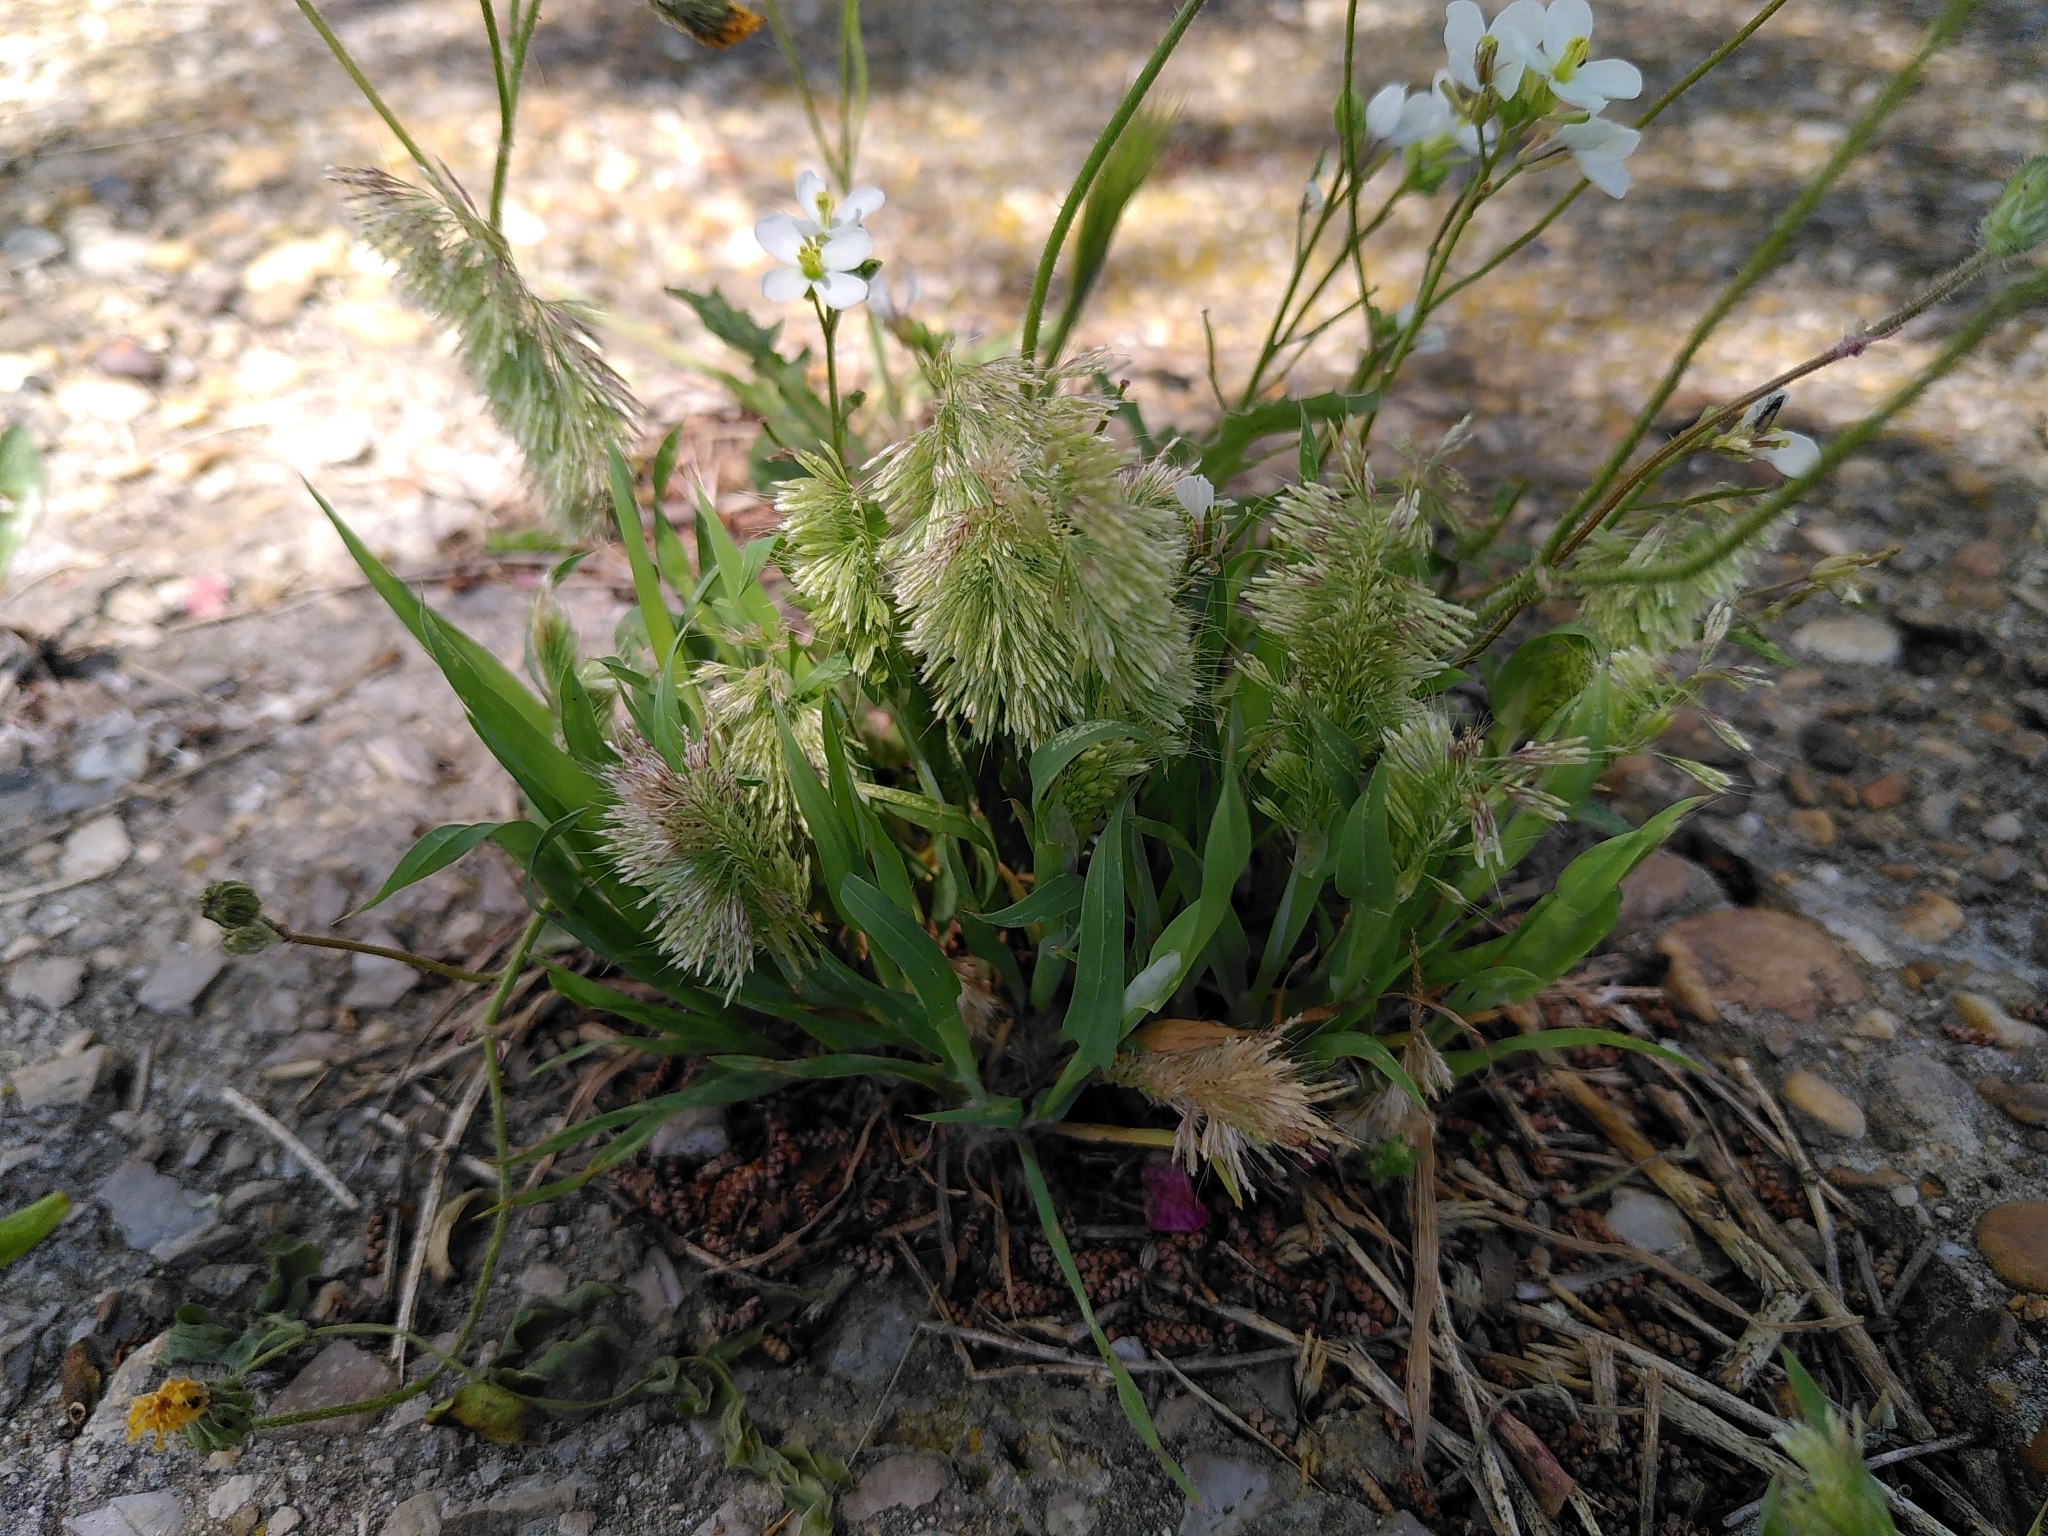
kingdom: Plantae
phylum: Tracheophyta
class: Liliopsida
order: Poales
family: Poaceae
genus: Lamarckia
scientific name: Lamarckia aurea
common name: Golden dog's-tail
